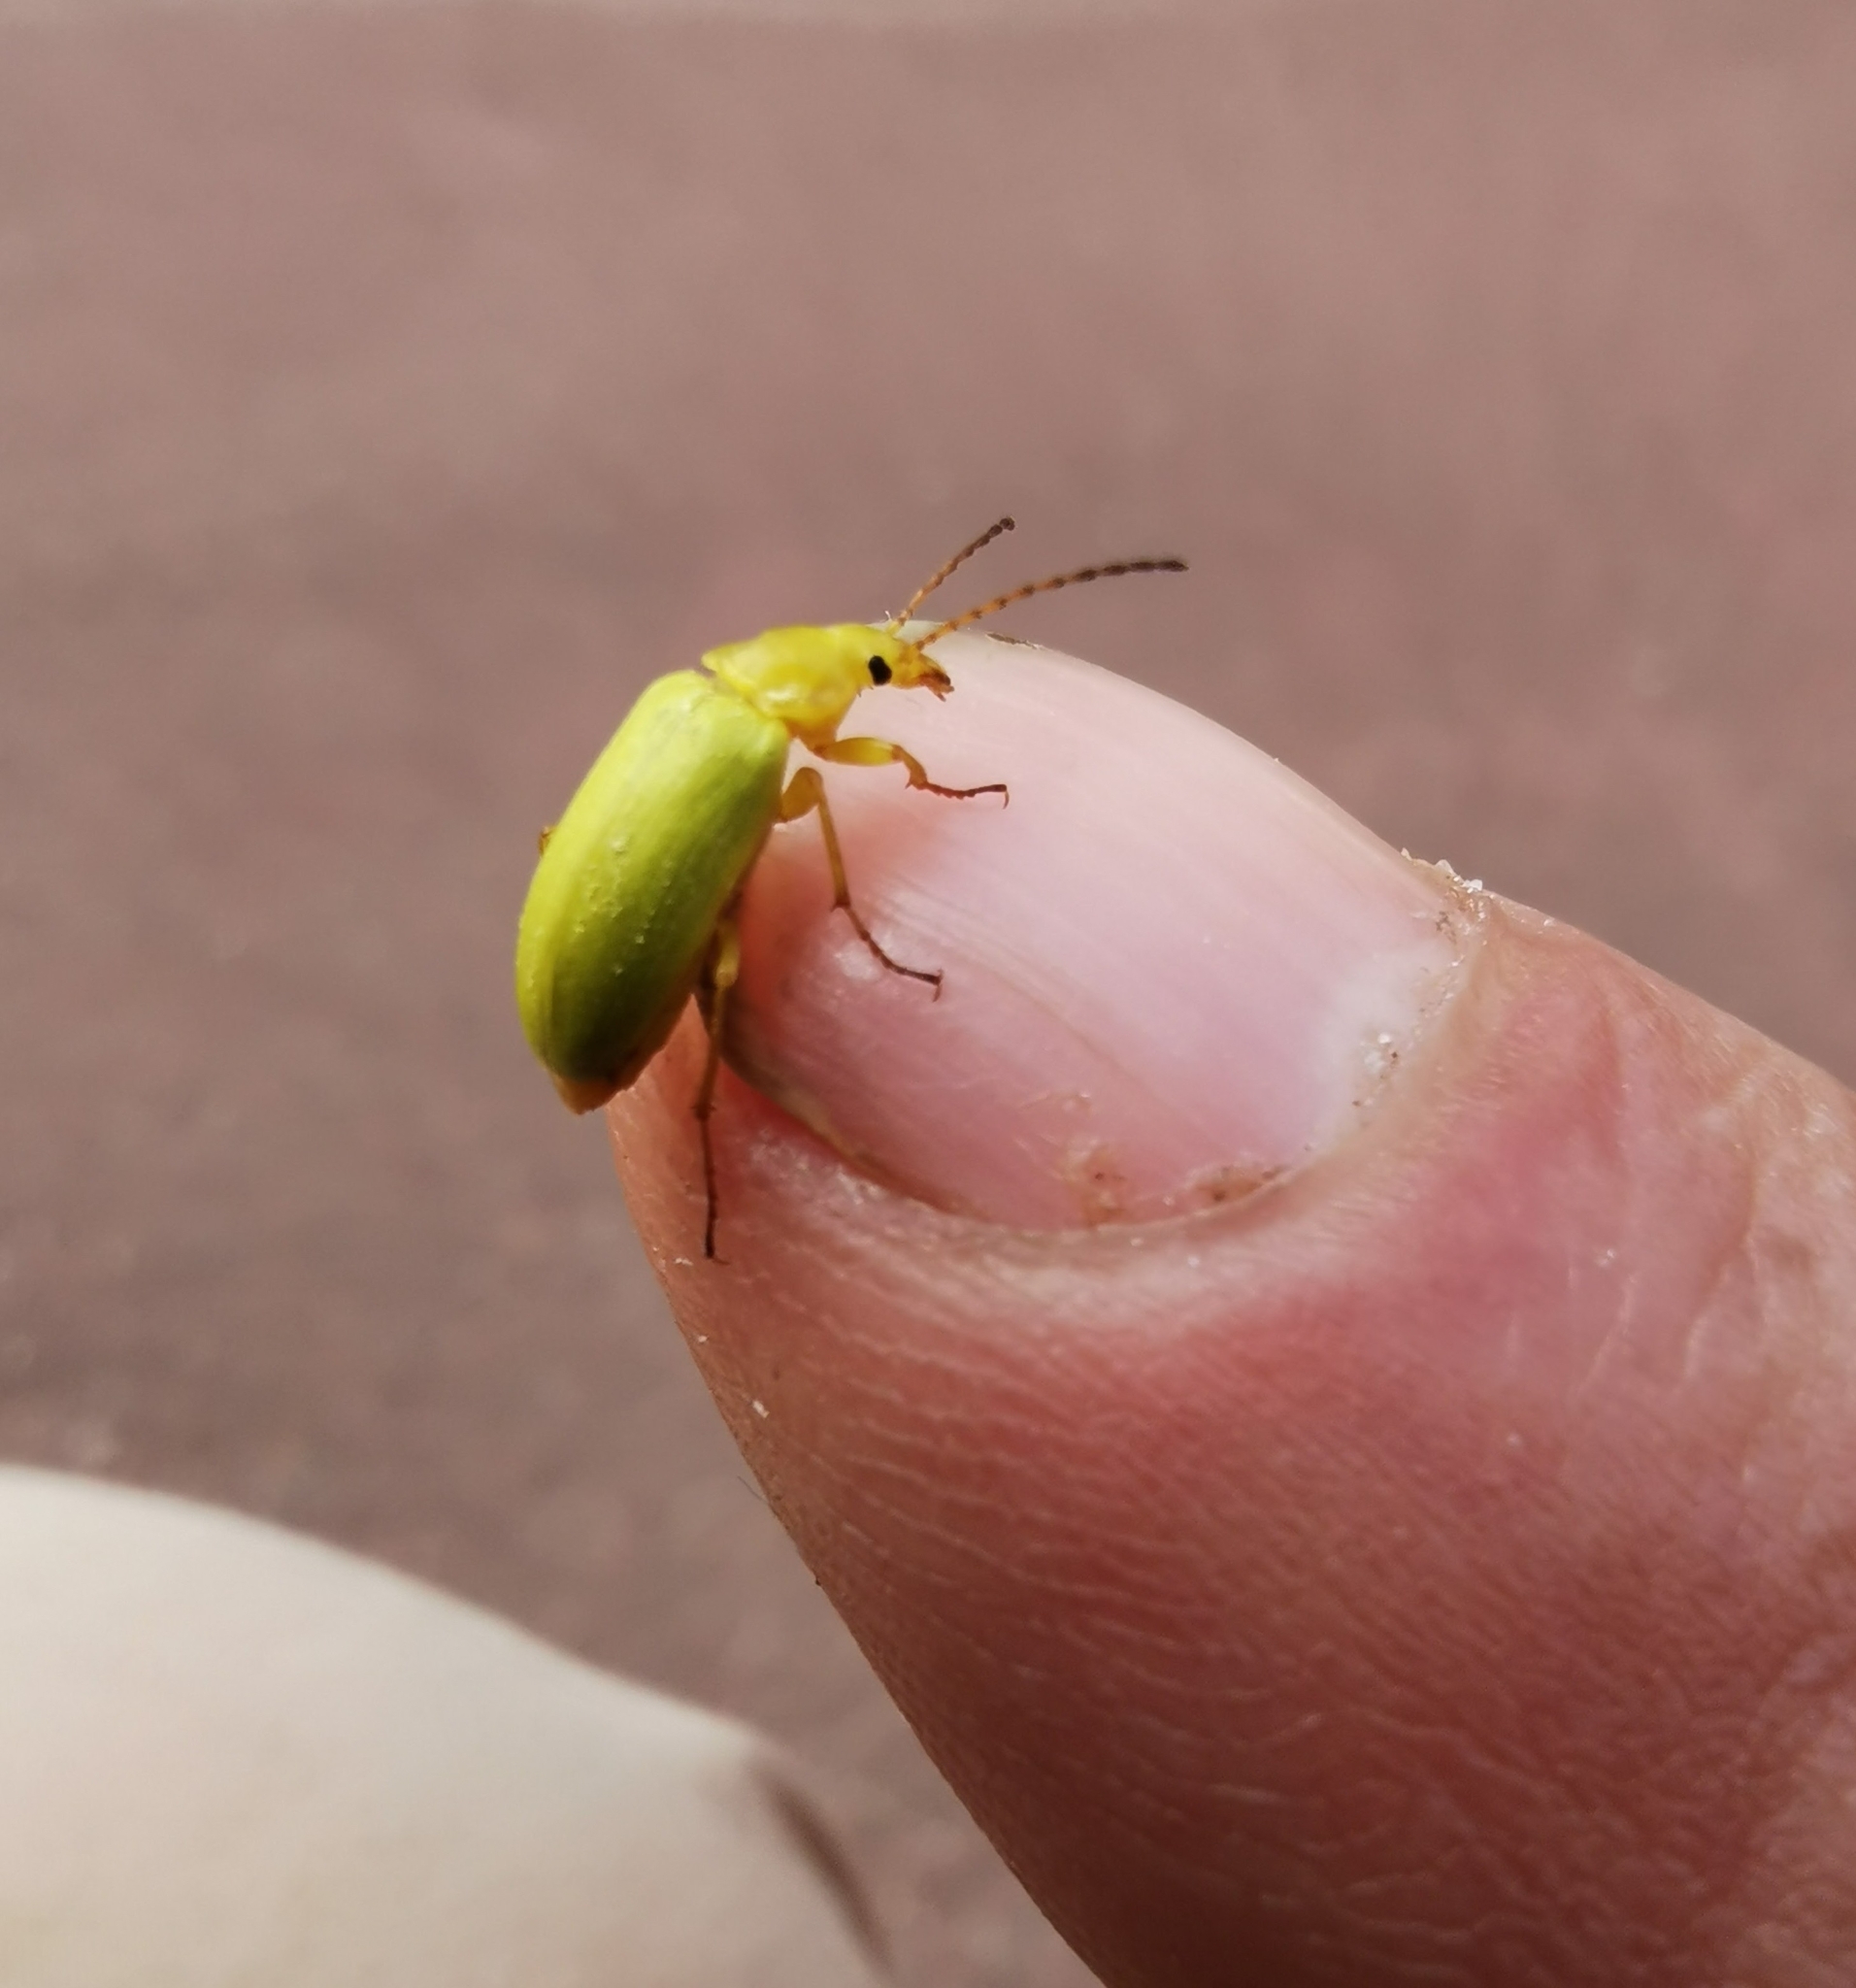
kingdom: Animalia
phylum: Arthropoda
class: Insecta
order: Coleoptera
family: Tenebrionidae
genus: Cteniopus
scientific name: Cteniopus sulphureus
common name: Sulphur beetle
